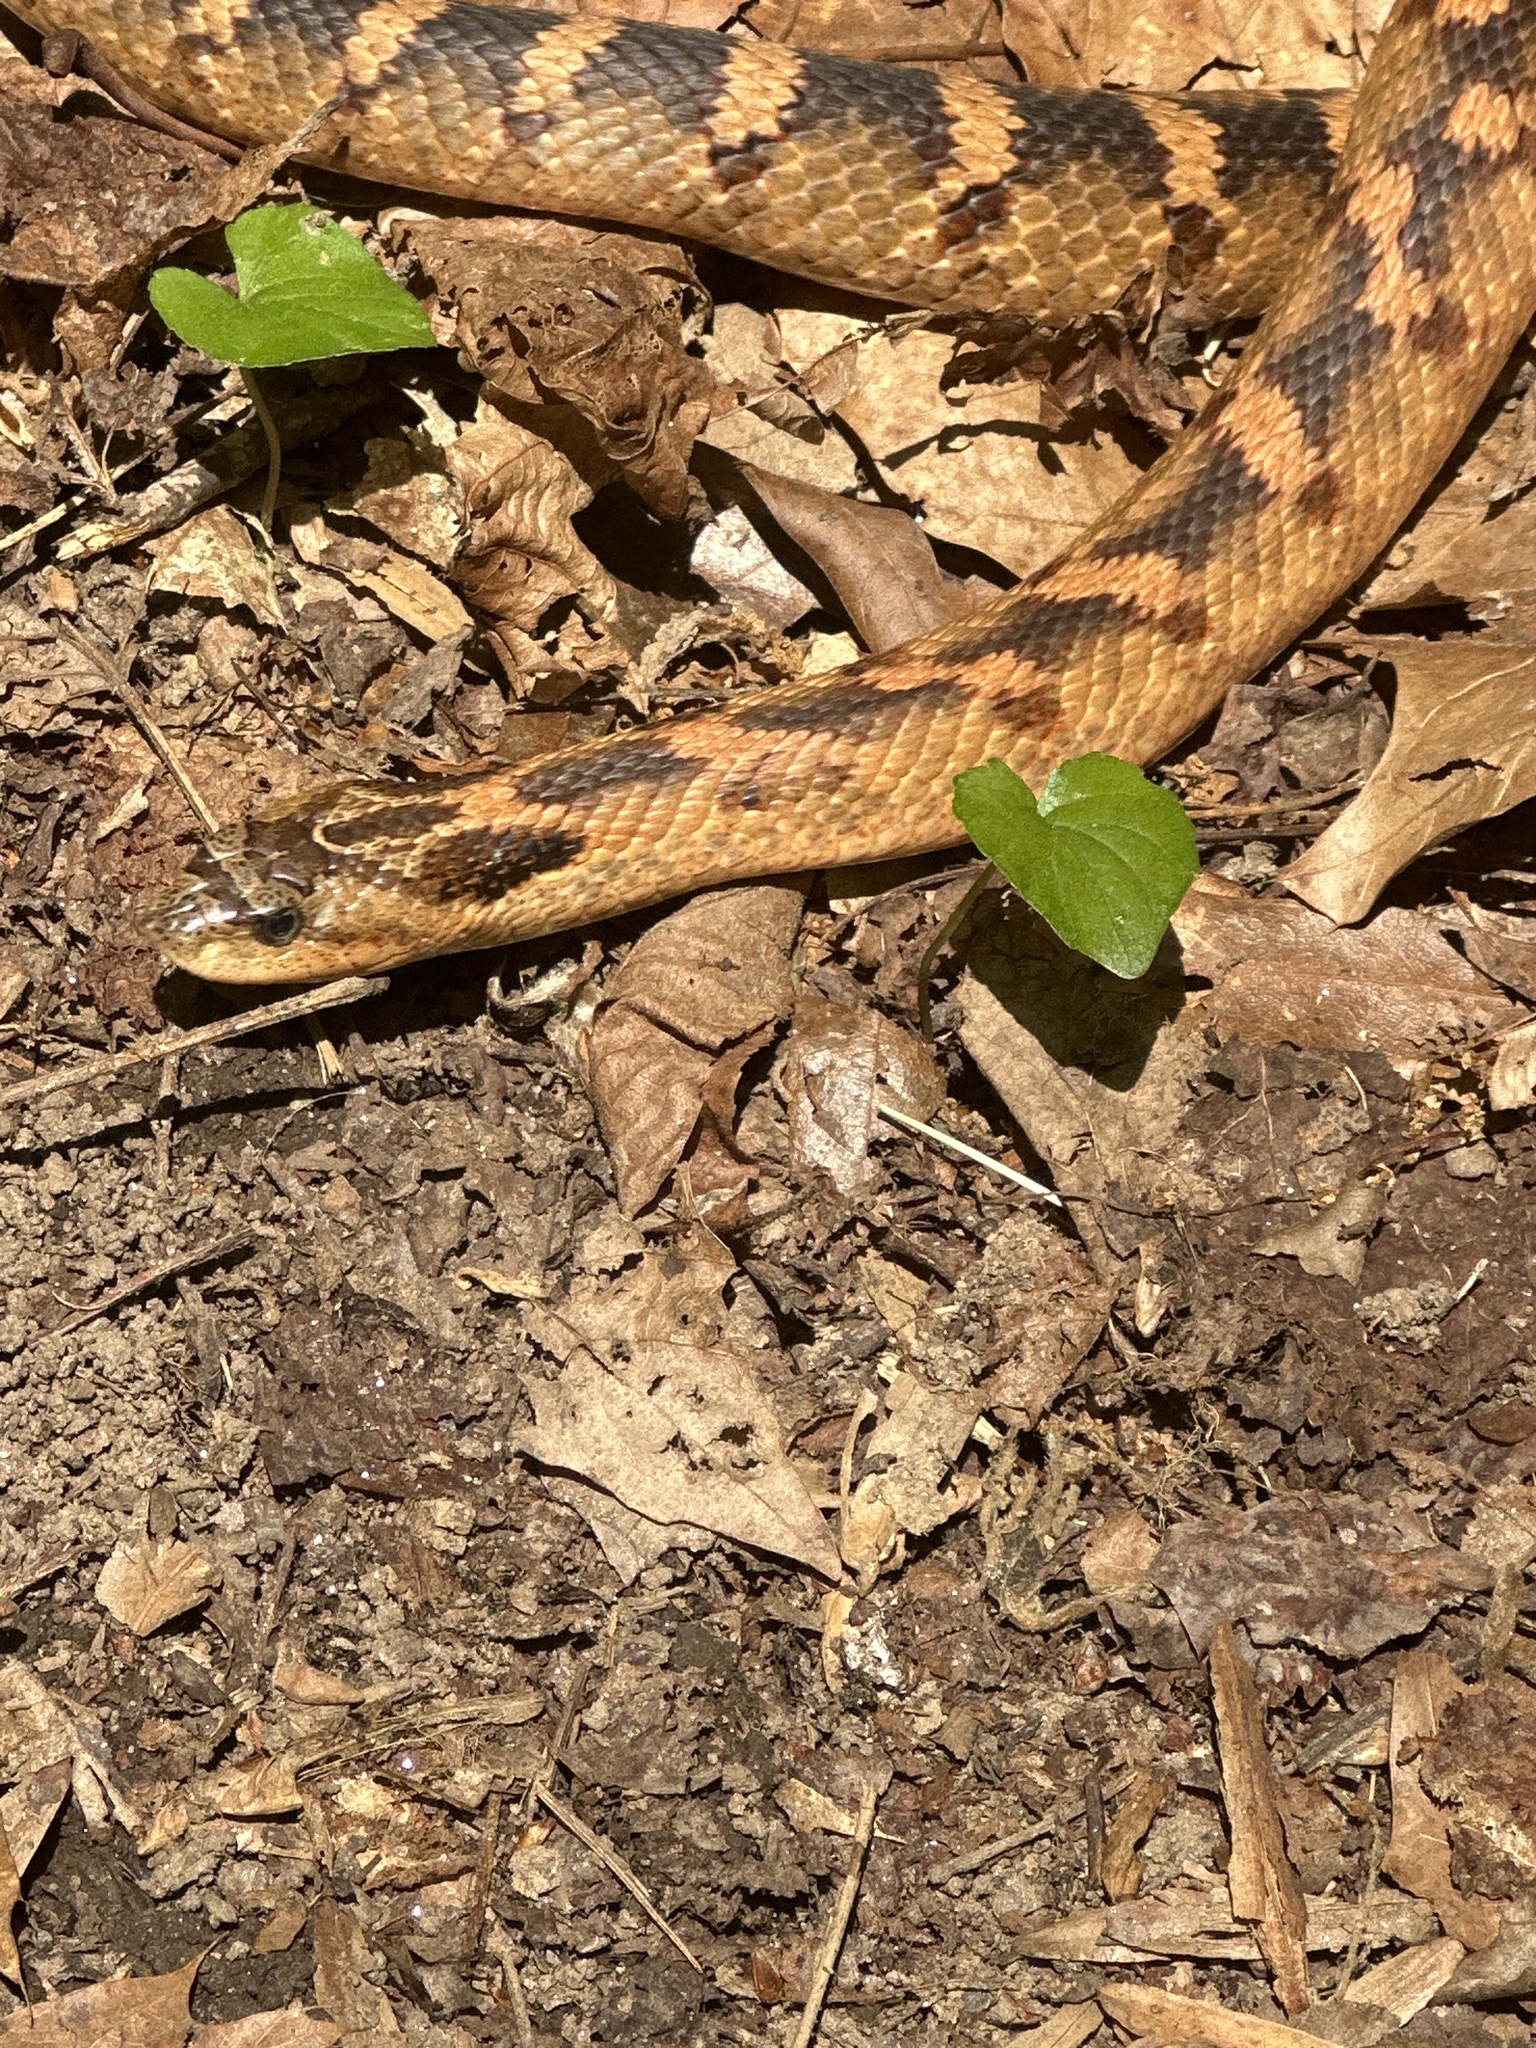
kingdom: Animalia
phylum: Chordata
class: Squamata
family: Colubridae
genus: Heterodon
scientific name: Heterodon platirhinos
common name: Eastern hognose snake
